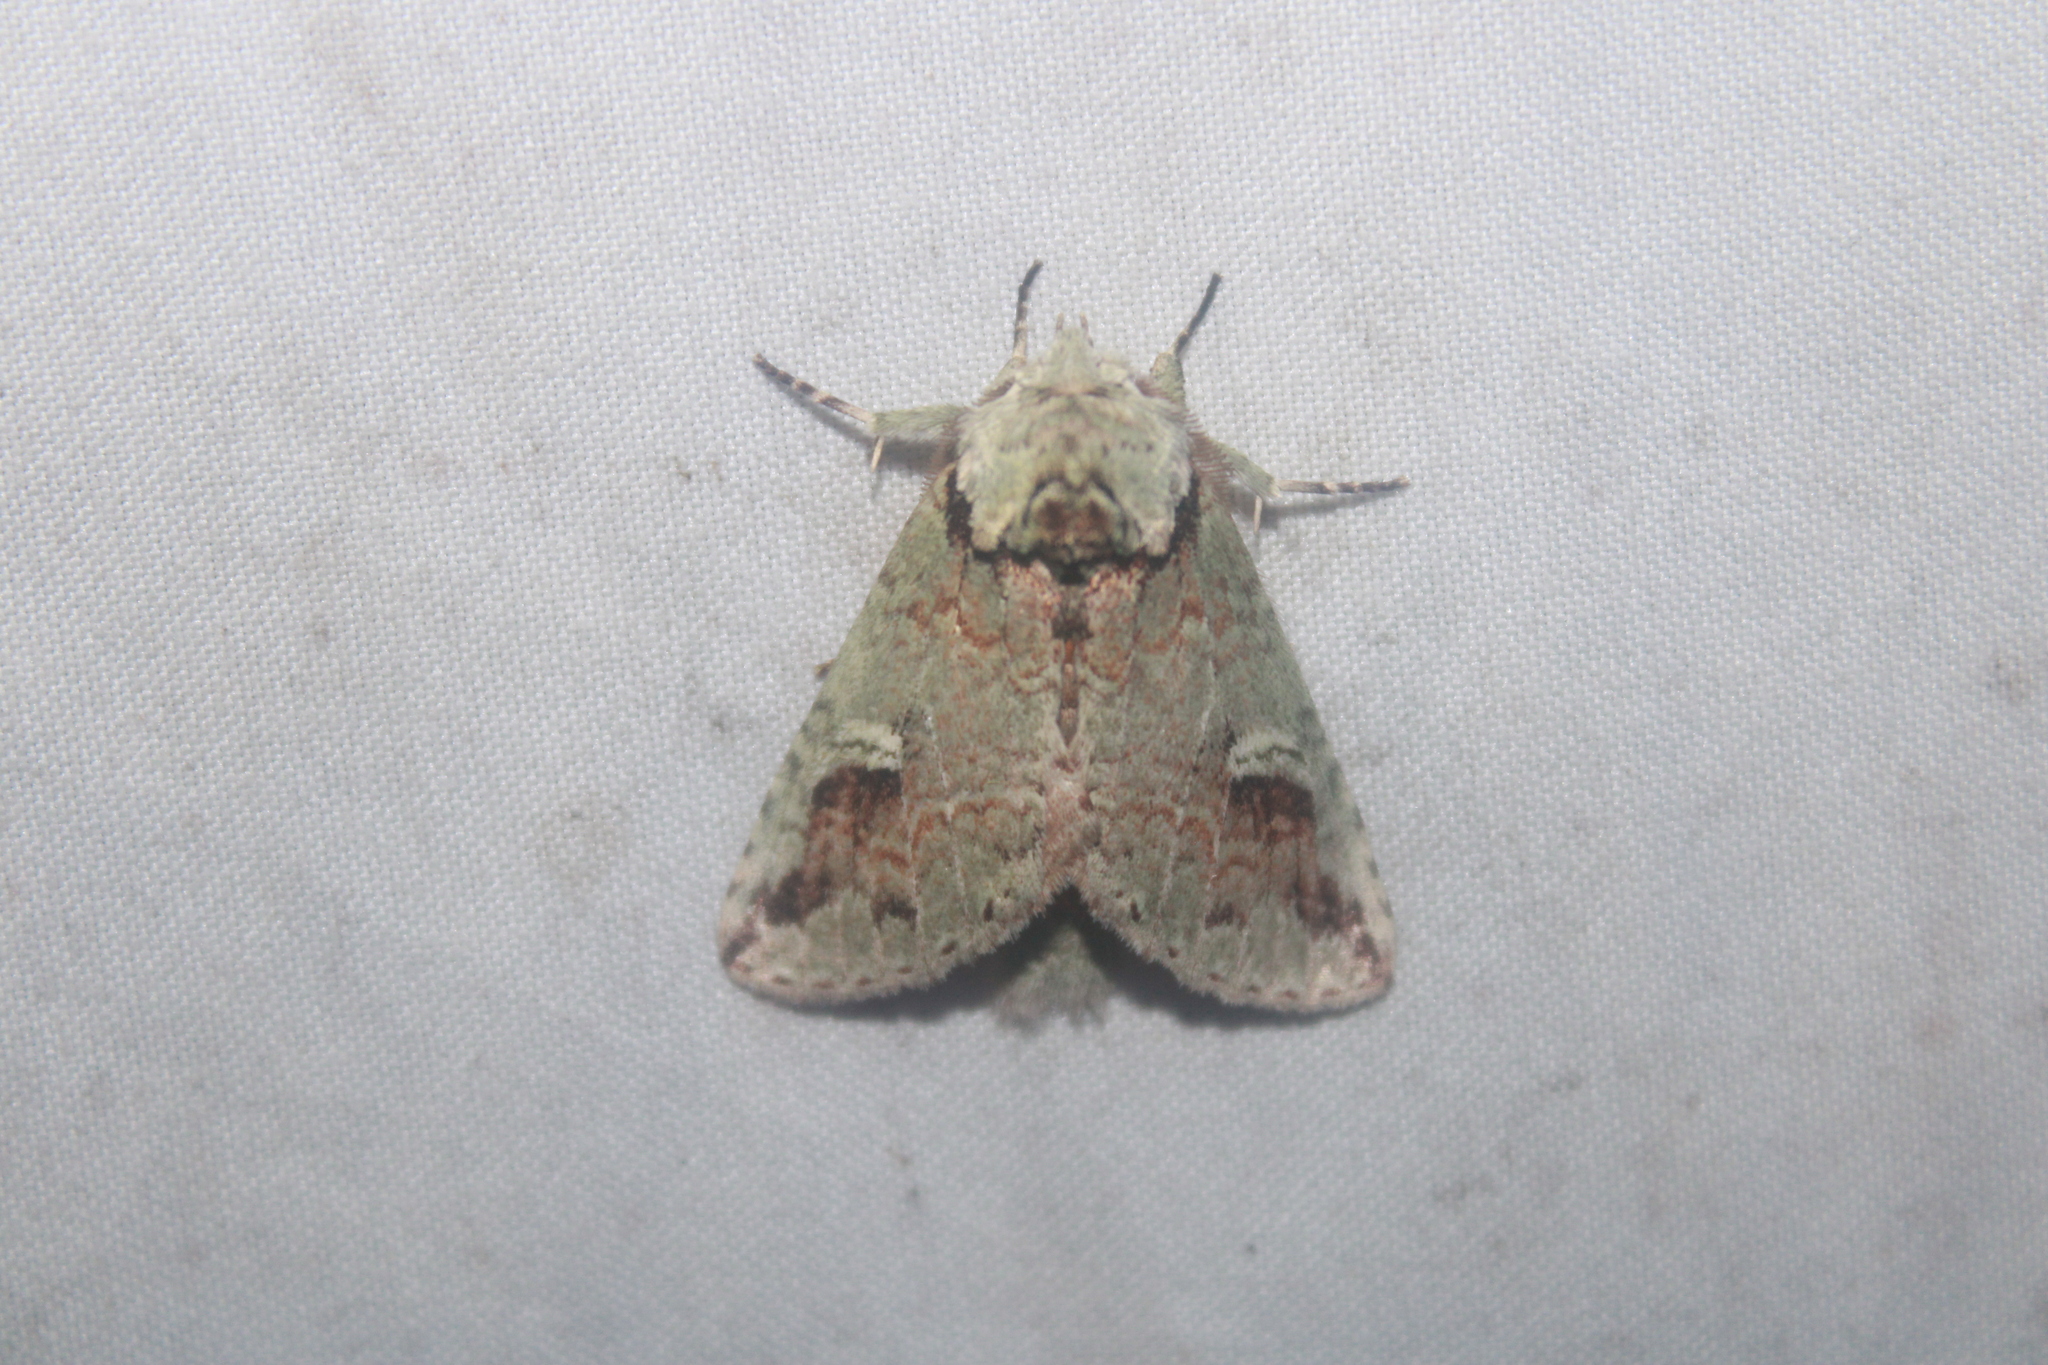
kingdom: Animalia
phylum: Arthropoda
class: Insecta
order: Lepidoptera
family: Notodontidae
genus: Macrurocampa
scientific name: Macrurocampa
